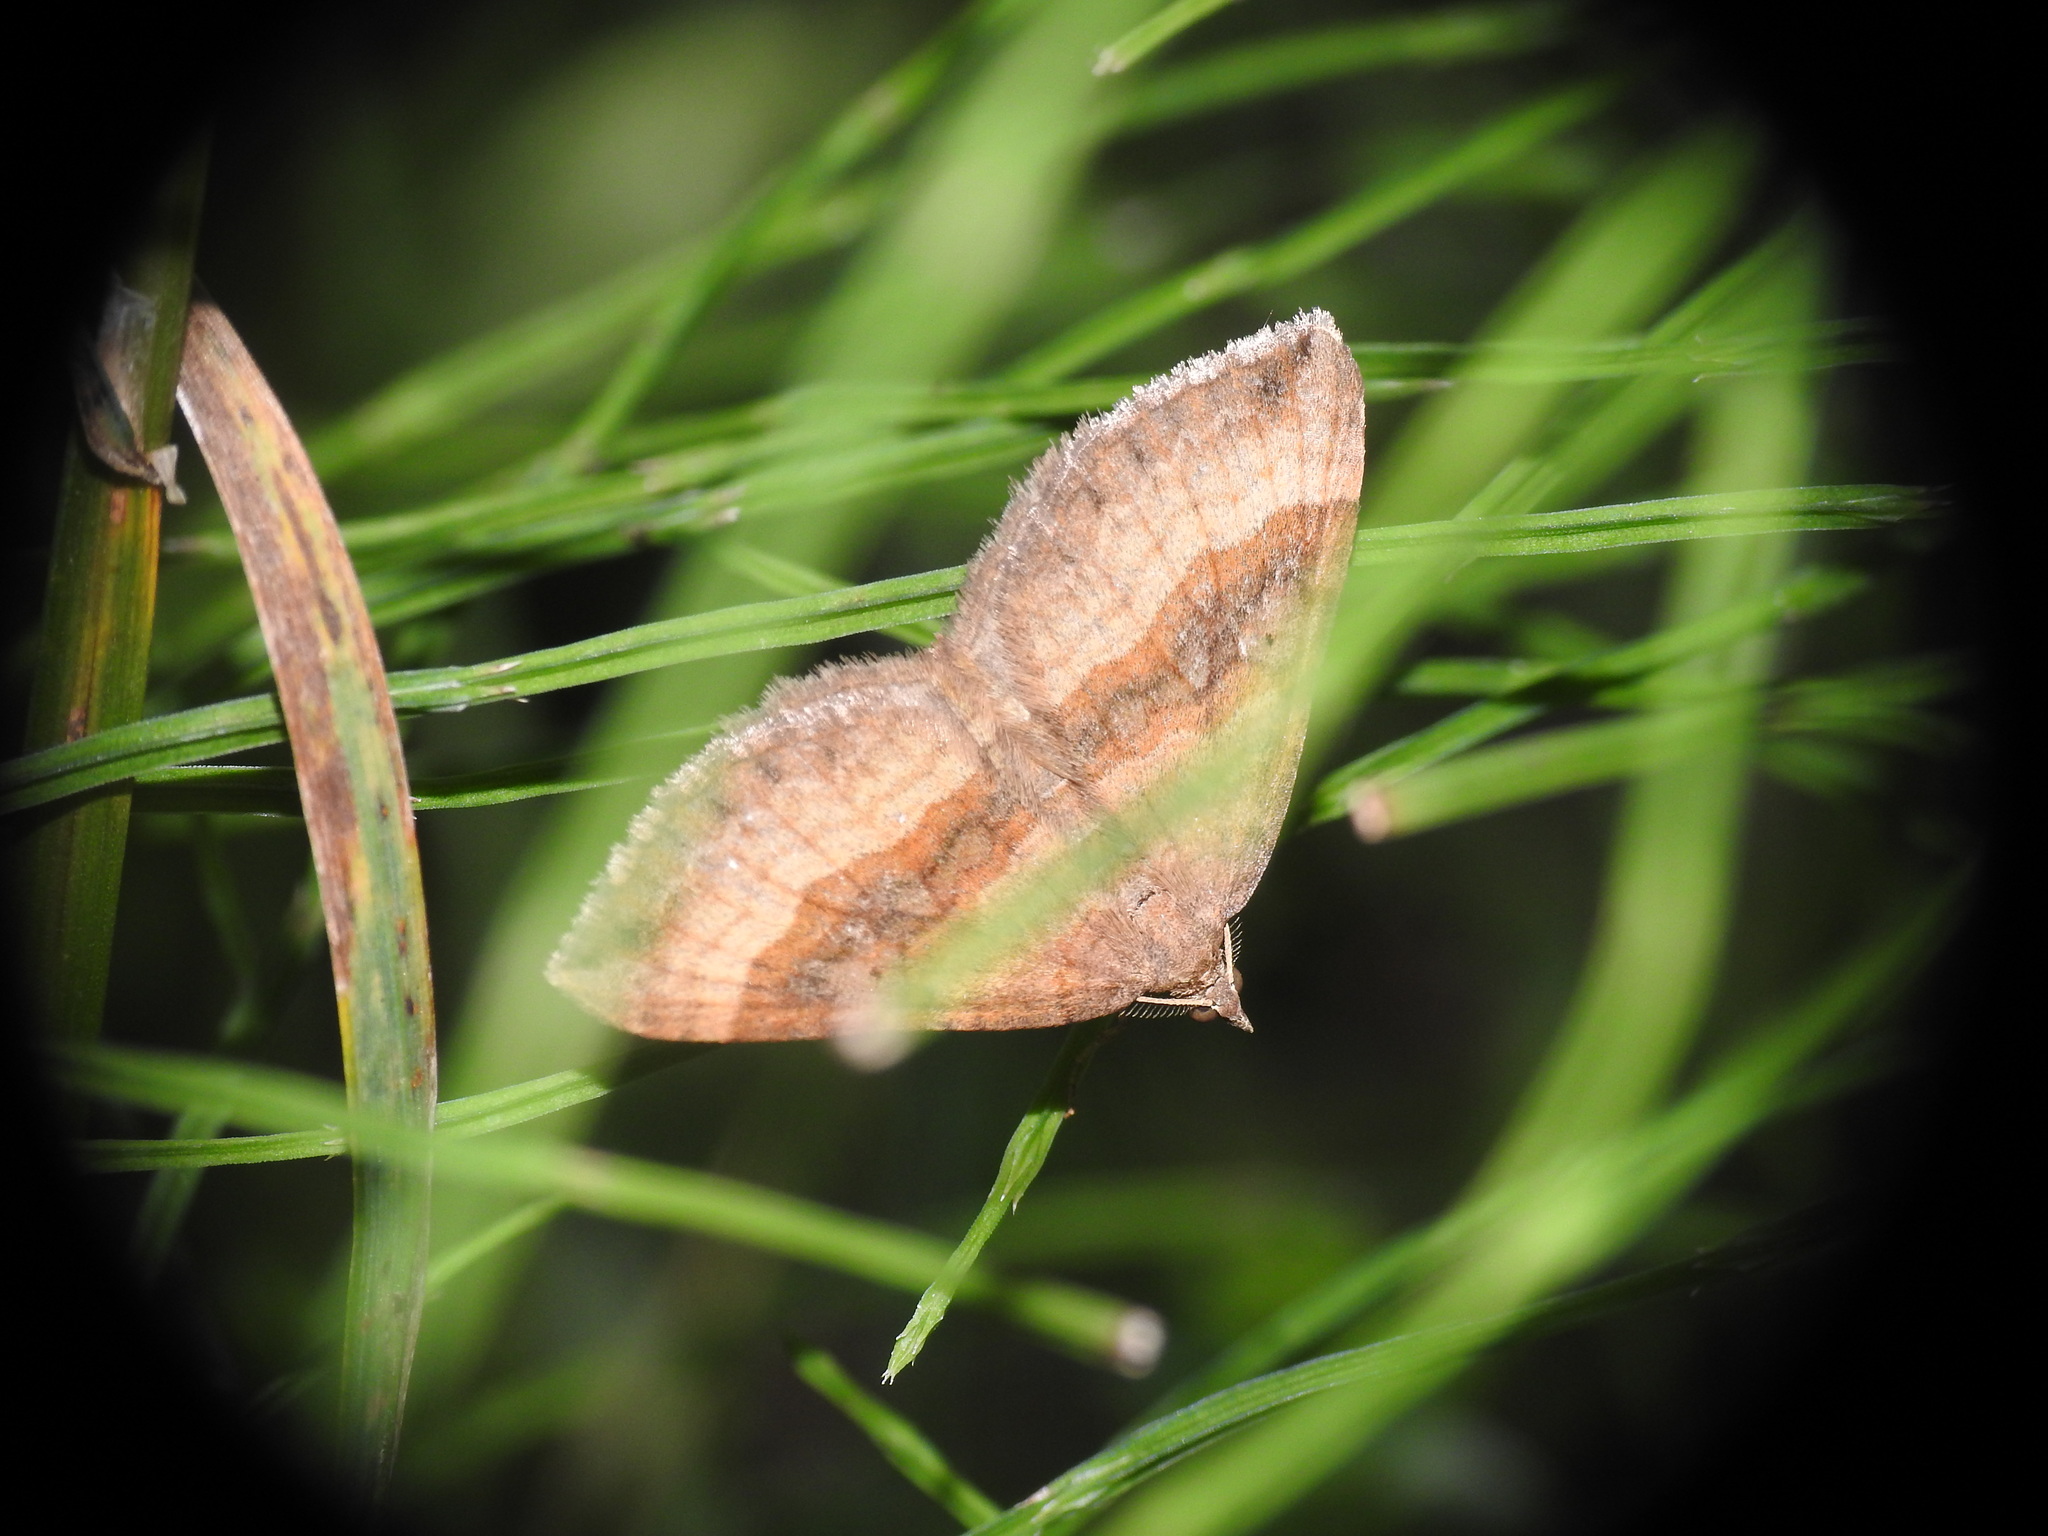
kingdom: Animalia
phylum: Arthropoda
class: Insecta
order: Lepidoptera
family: Geometridae
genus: Scotopteryx
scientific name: Scotopteryx chenopodiata
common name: Shaded broad-bar
